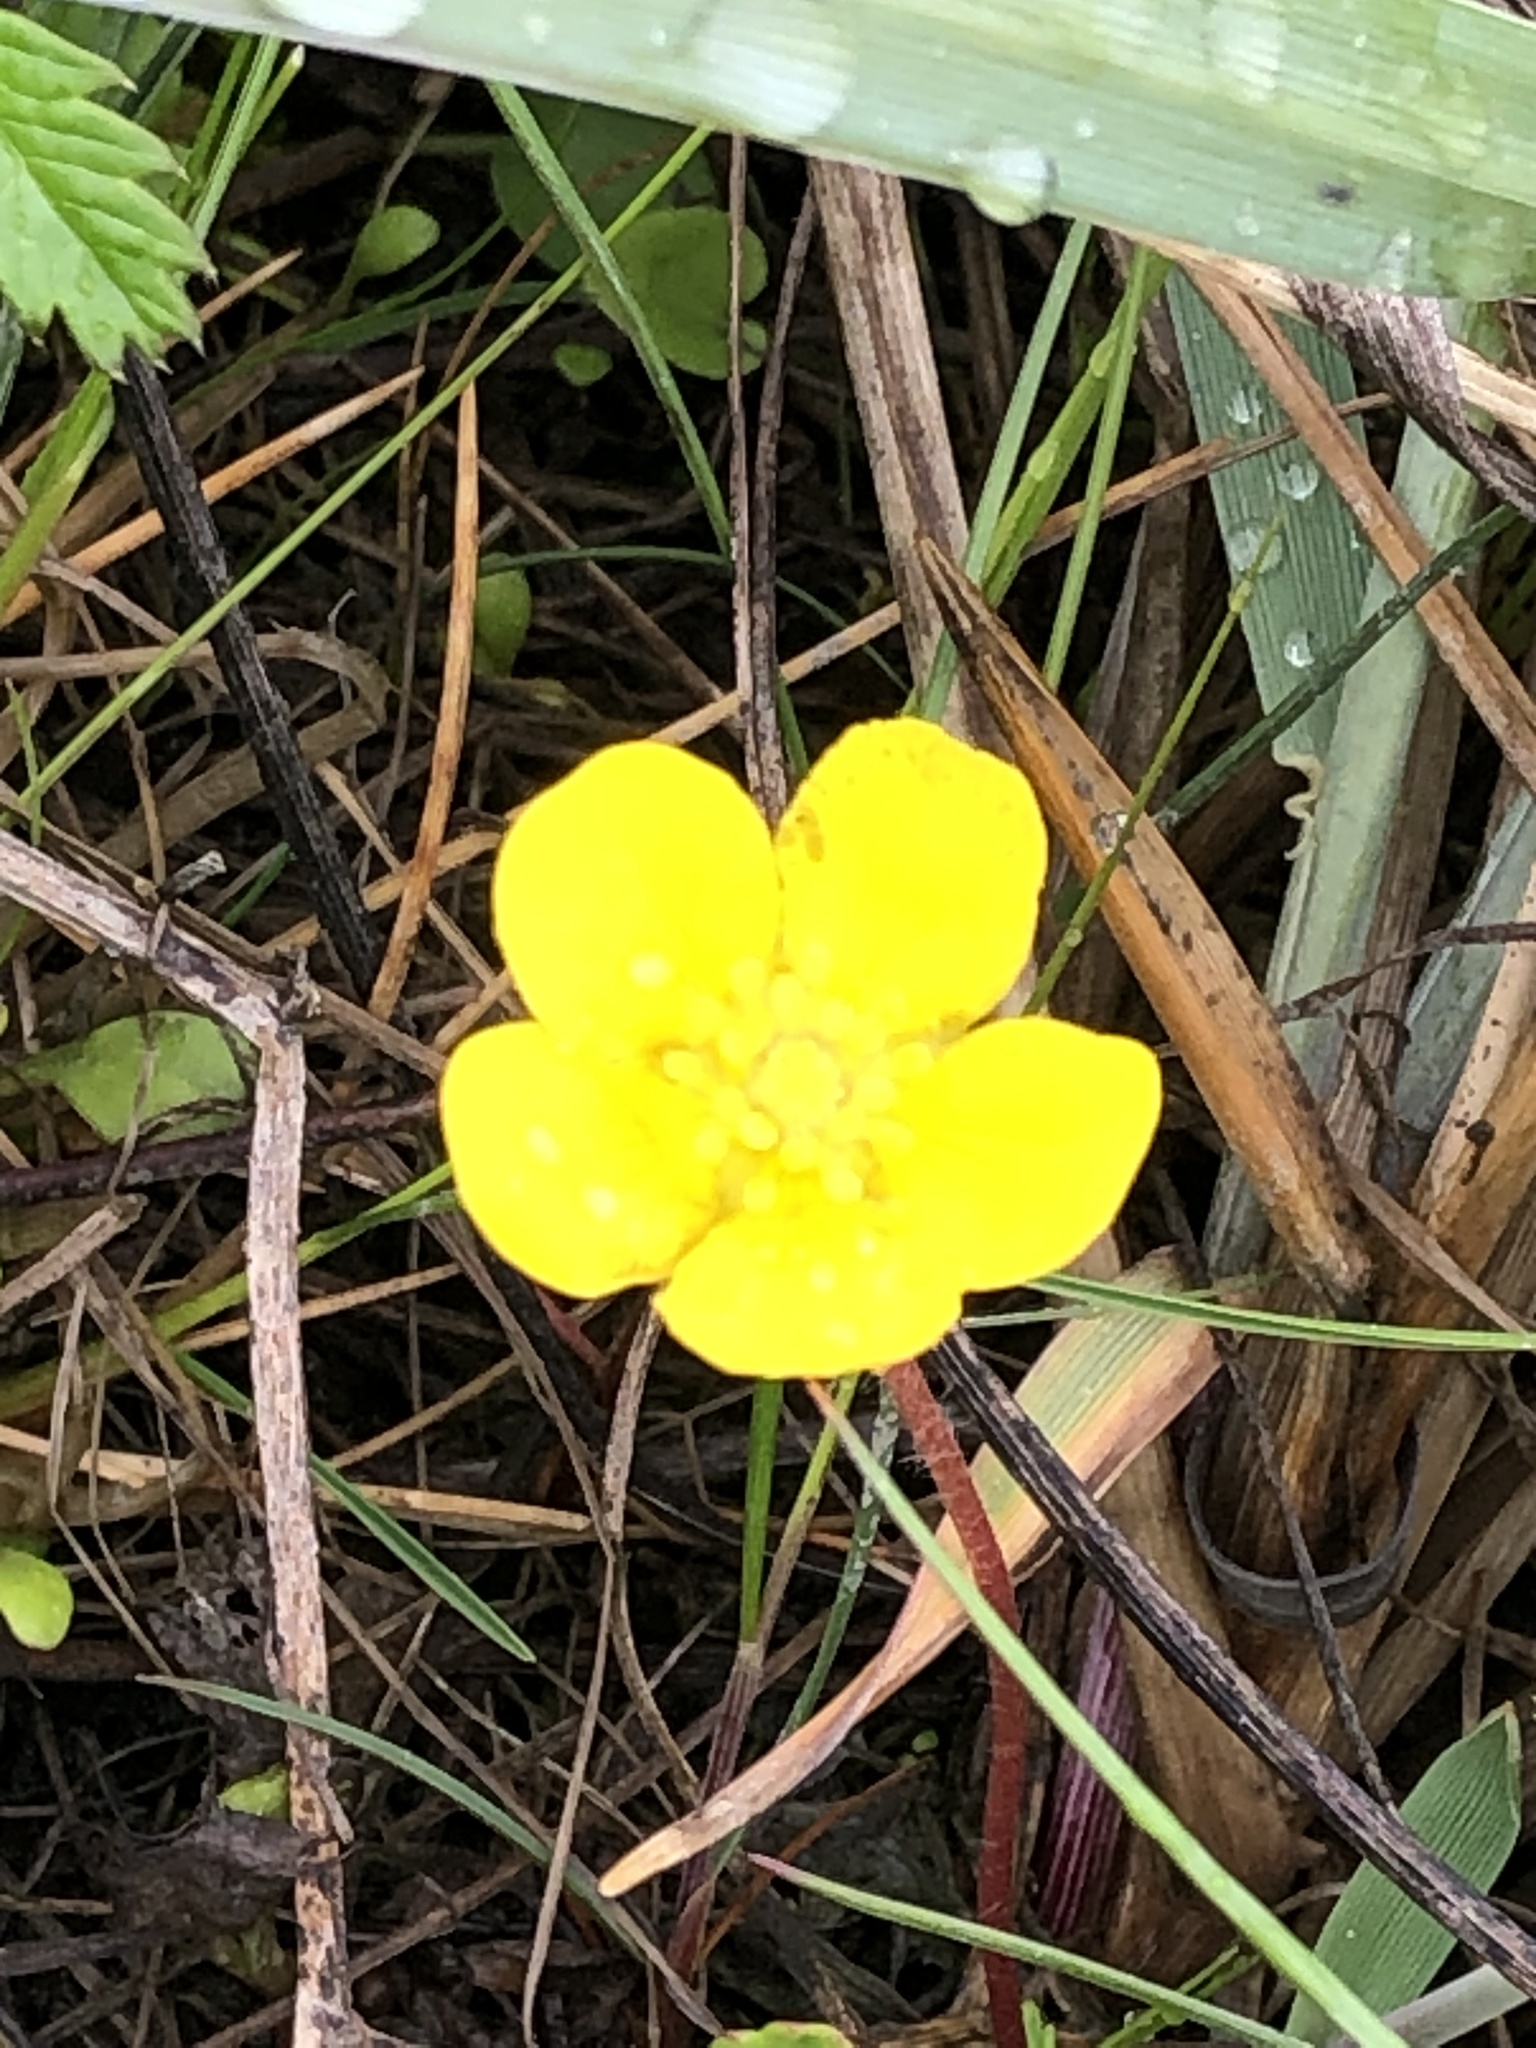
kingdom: Plantae
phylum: Tracheophyta
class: Magnoliopsida
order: Rosales
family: Rosaceae
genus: Argentina
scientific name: Argentina anserina
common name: Common silverweed
